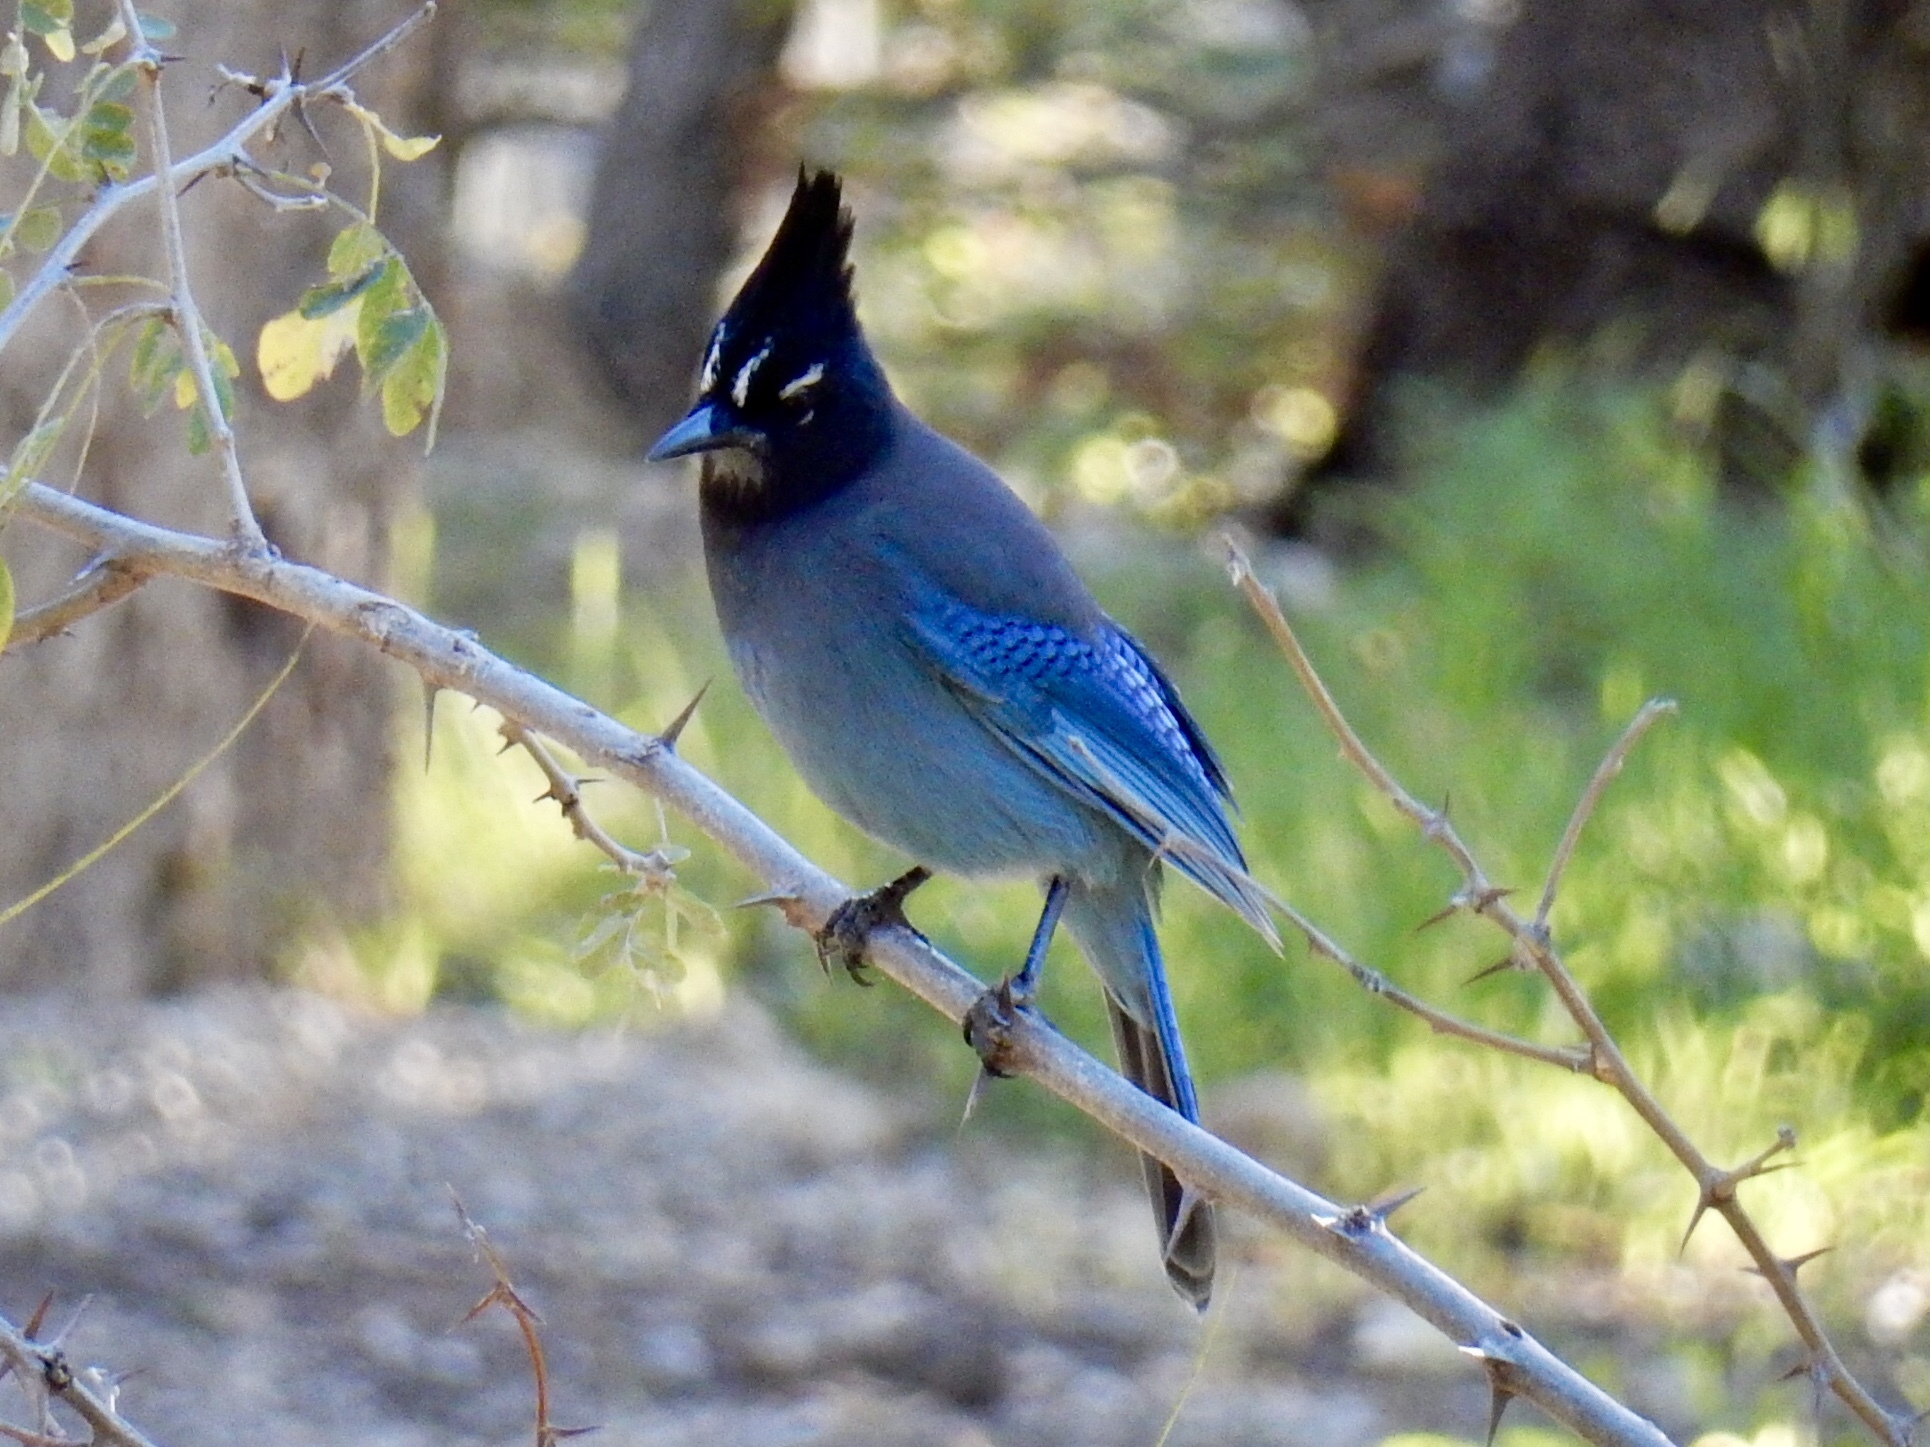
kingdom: Animalia
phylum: Chordata
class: Aves
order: Passeriformes
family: Corvidae
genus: Cyanocitta
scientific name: Cyanocitta stelleri
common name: Steller's jay
